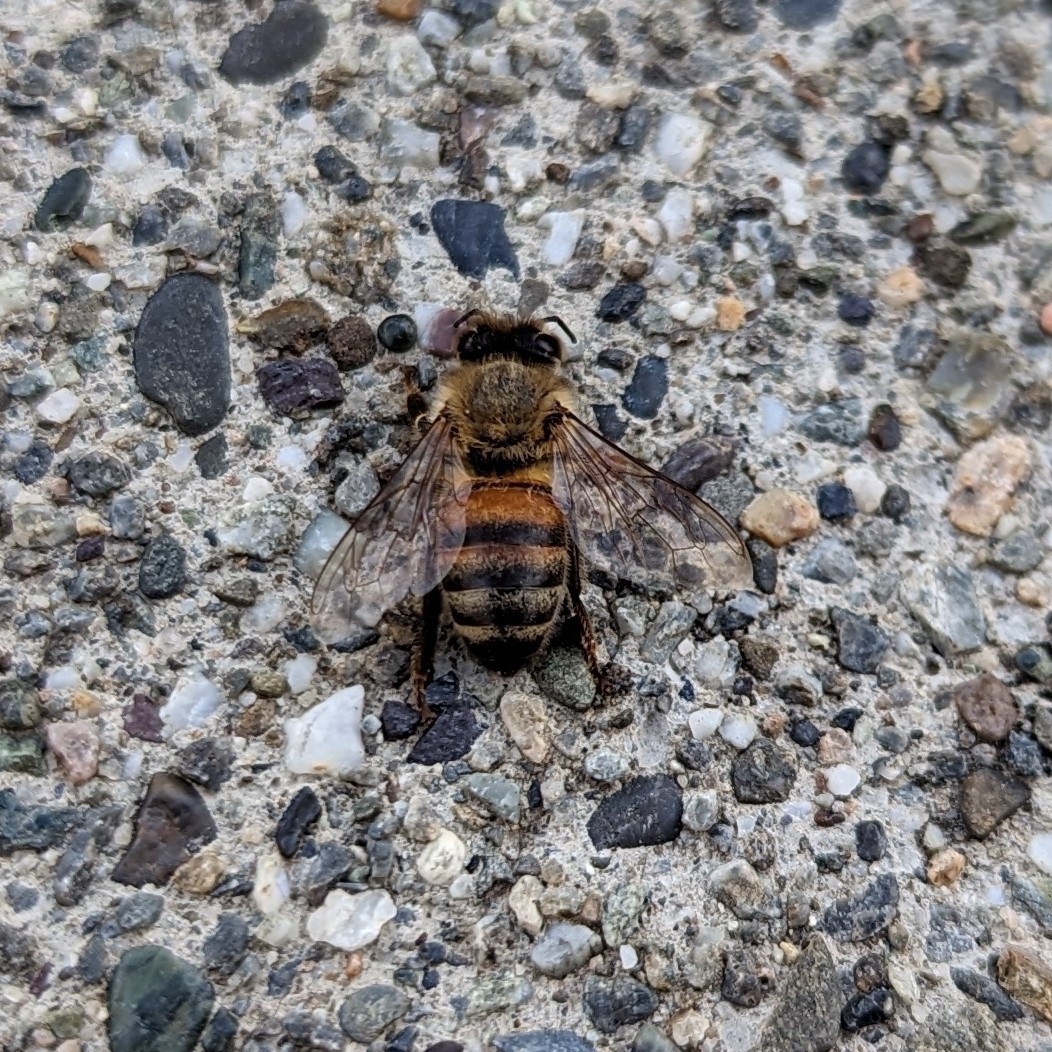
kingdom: Animalia
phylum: Arthropoda
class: Insecta
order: Hymenoptera
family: Apidae
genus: Apis
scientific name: Apis mellifera
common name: Honey bee
